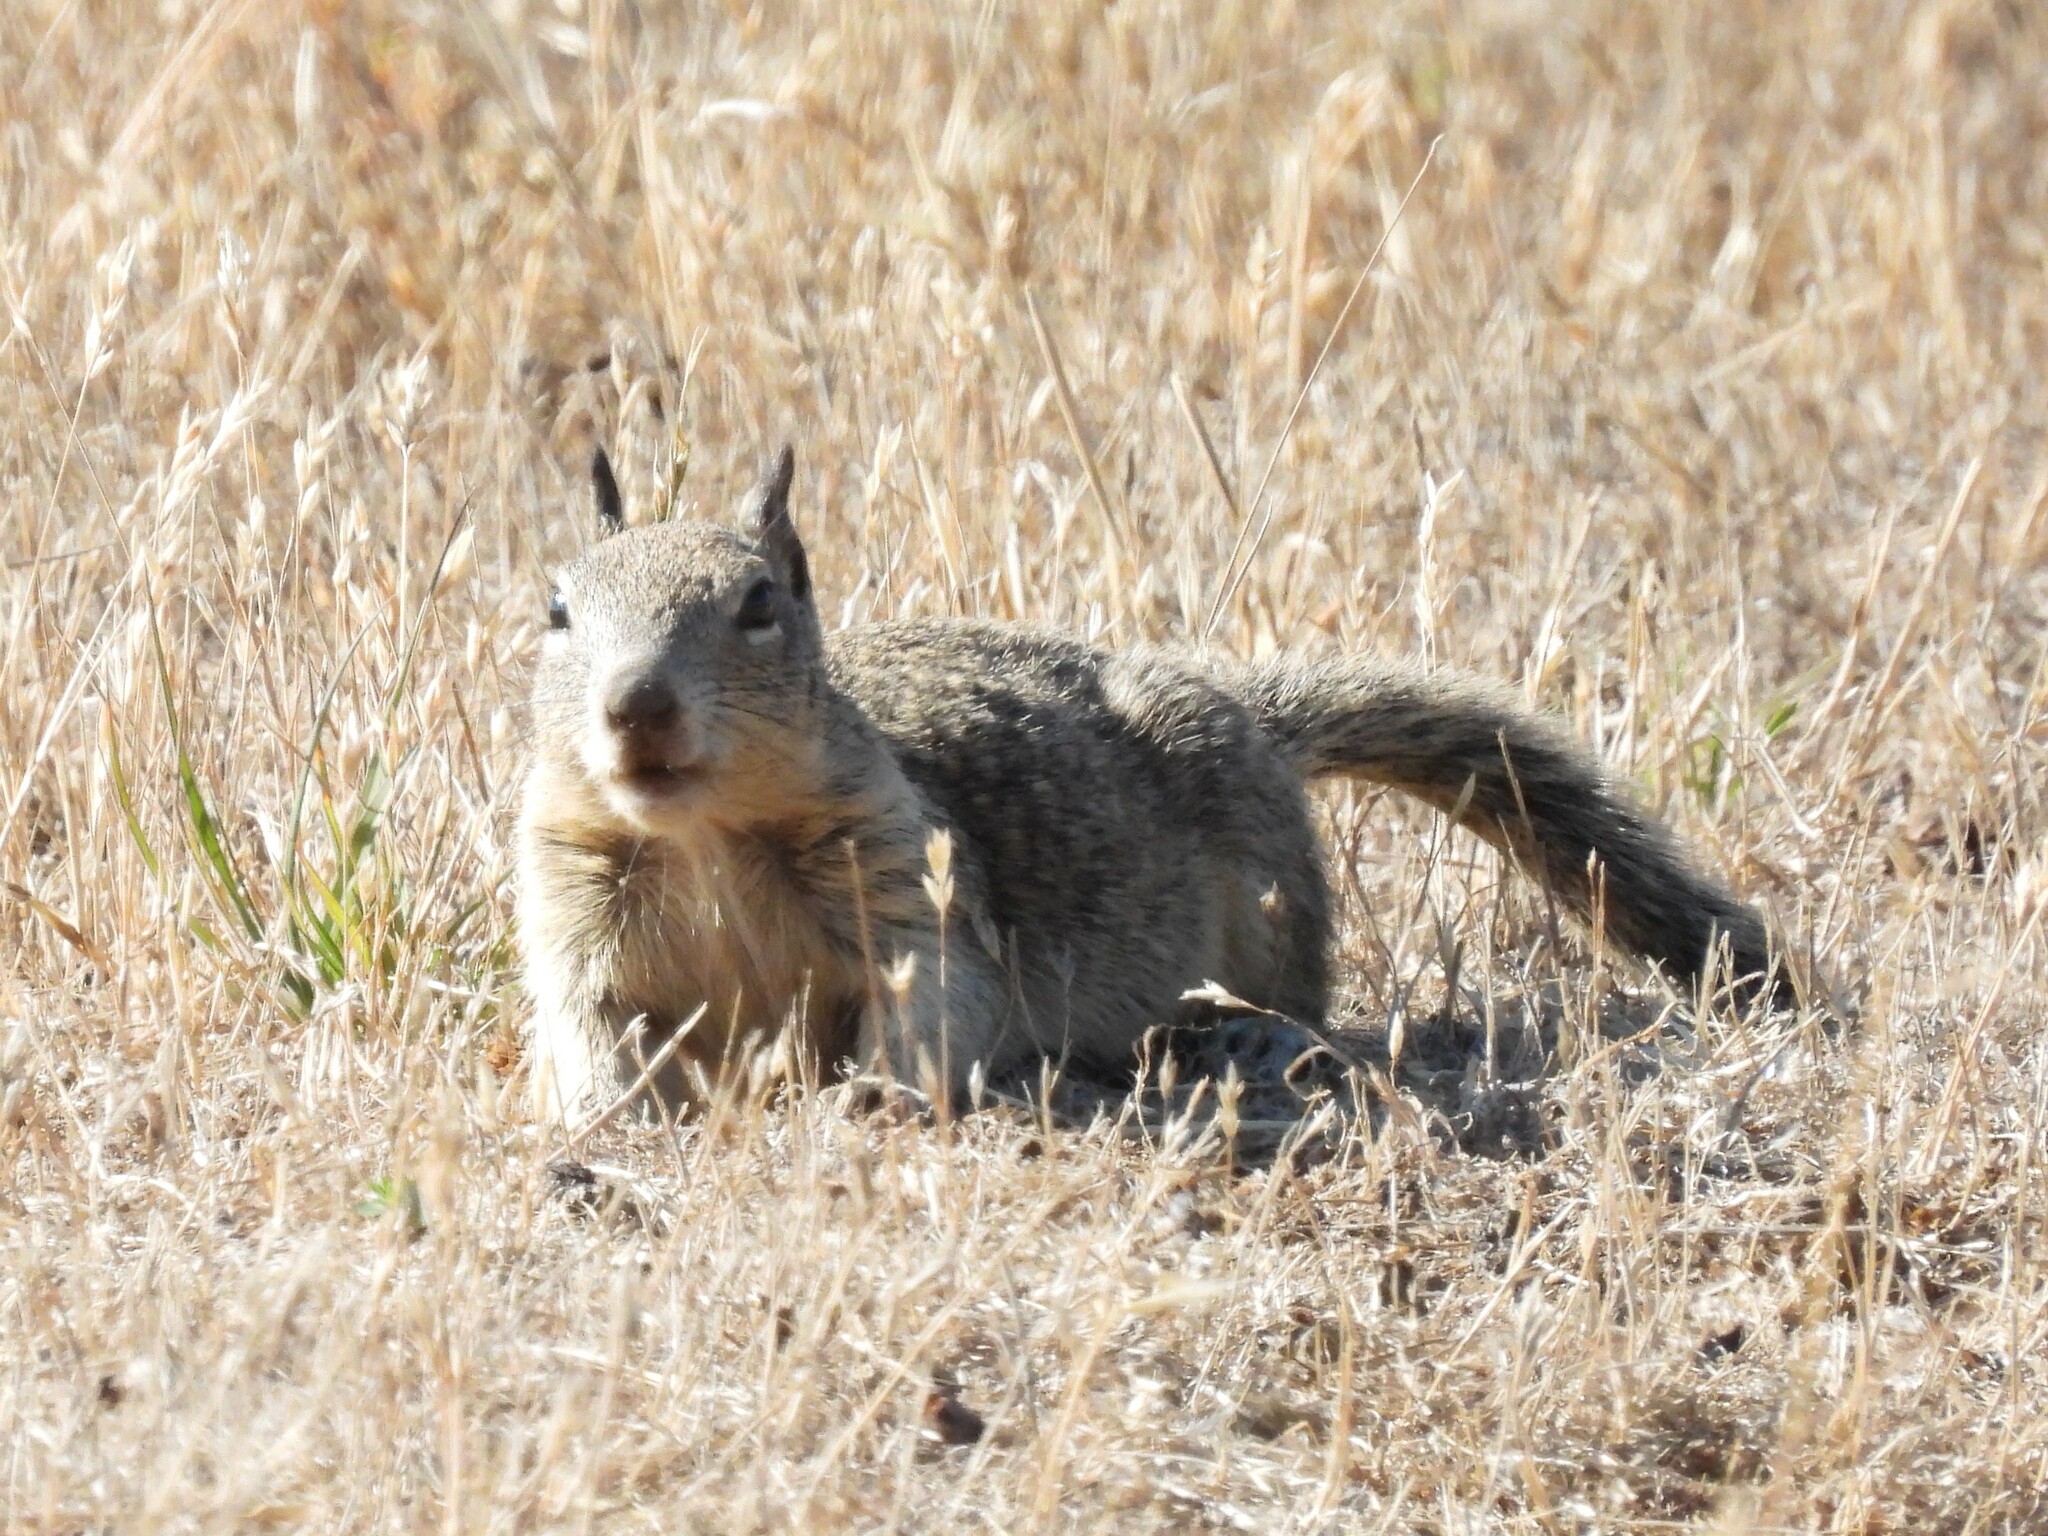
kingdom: Animalia
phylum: Chordata
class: Mammalia
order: Rodentia
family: Sciuridae
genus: Otospermophilus
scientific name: Otospermophilus beecheyi
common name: California ground squirrel
